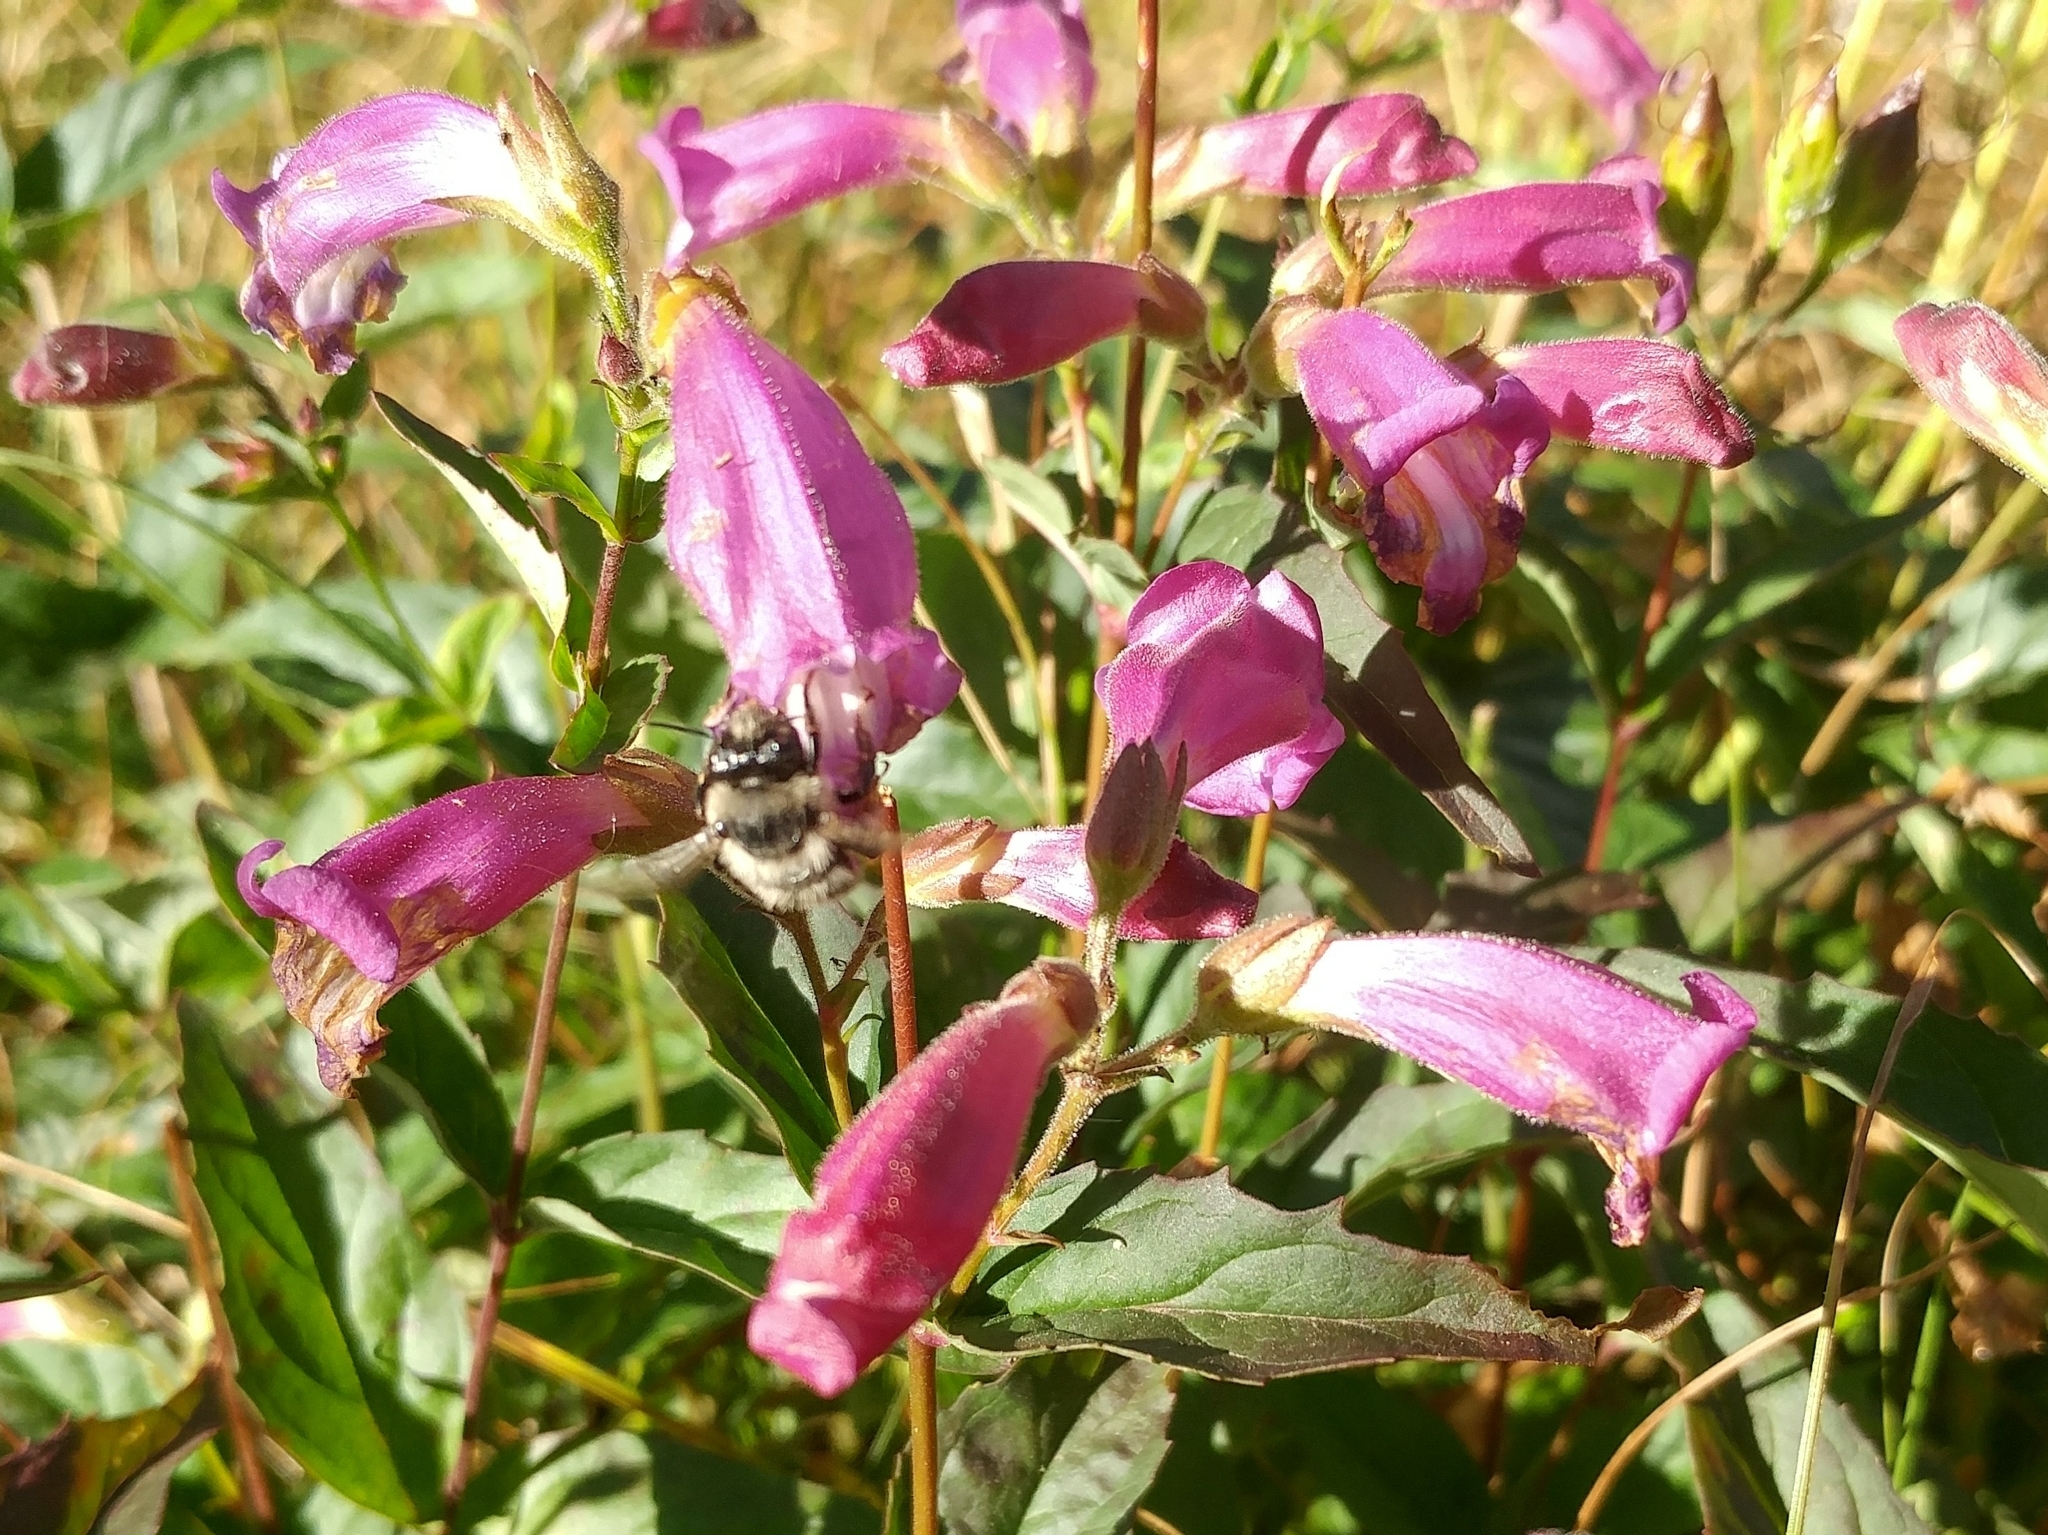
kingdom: Plantae
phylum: Tracheophyta
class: Magnoliopsida
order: Lamiales
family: Plantaginaceae
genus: Nothochelone
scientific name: Nothochelone nemorosa
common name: Woodland beardtongue
